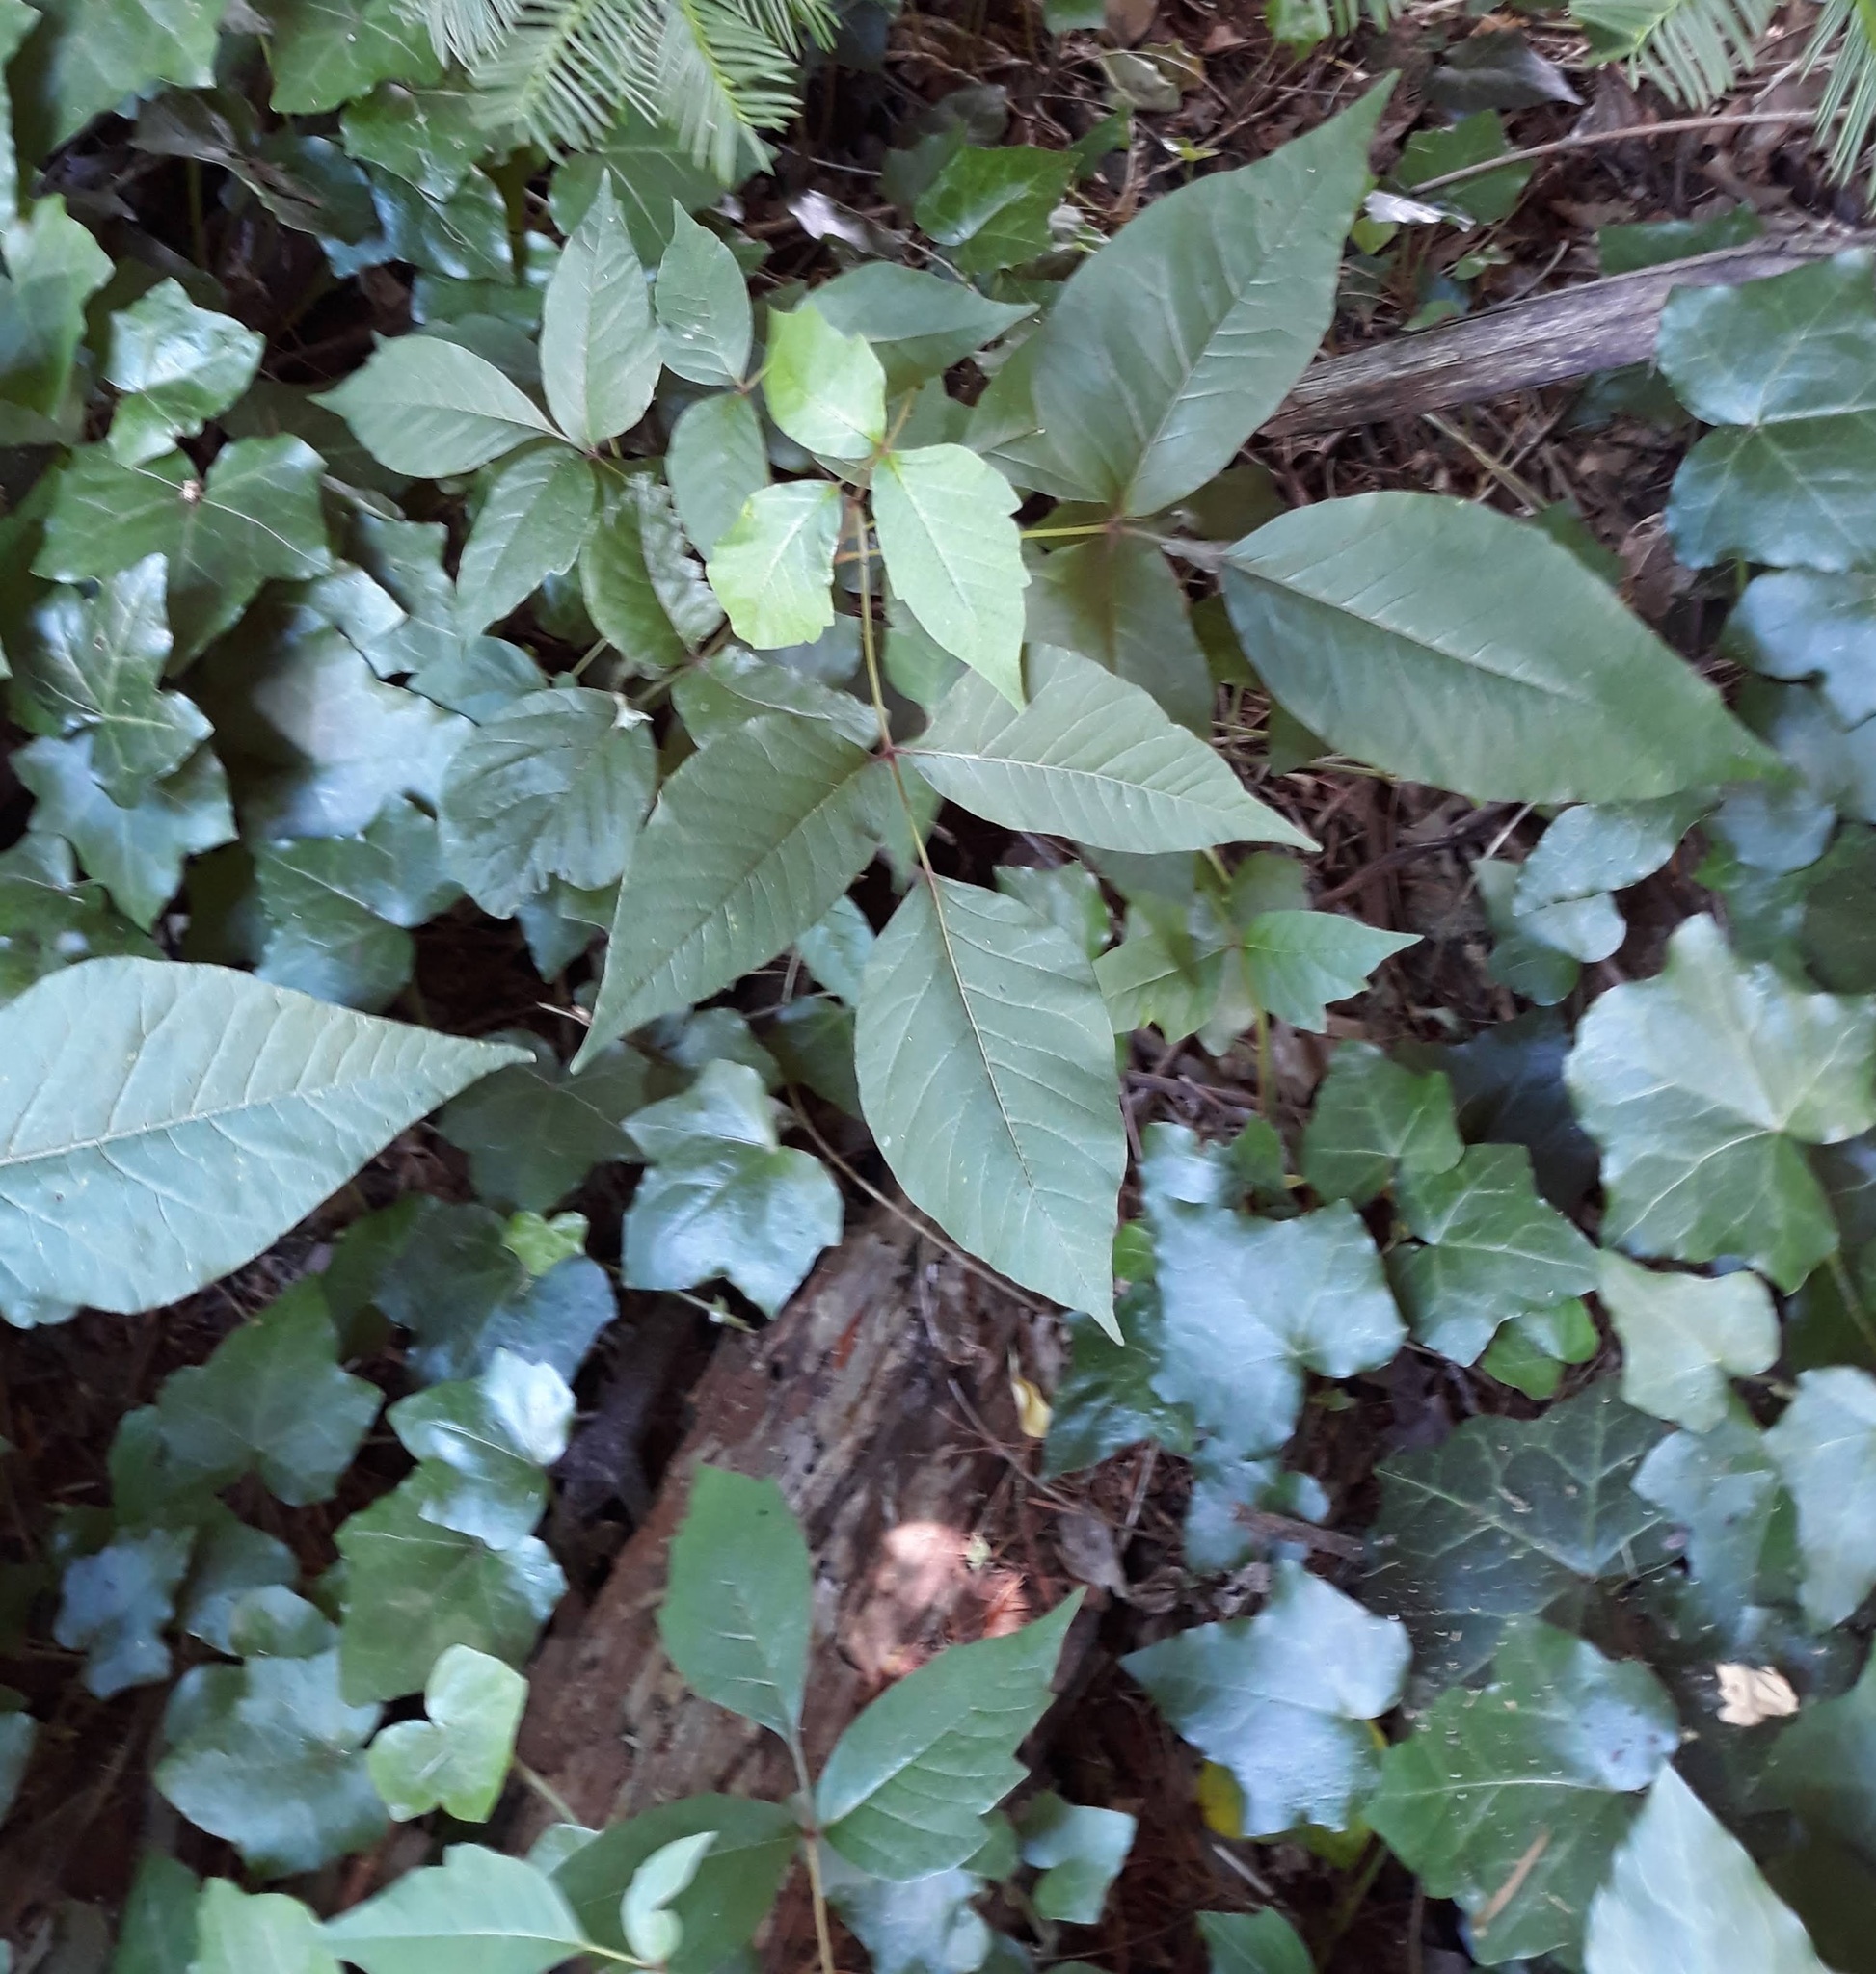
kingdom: Plantae
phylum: Tracheophyta
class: Magnoliopsida
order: Sapindales
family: Anacardiaceae
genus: Toxicodendron
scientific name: Toxicodendron radicans
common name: Poison ivy
